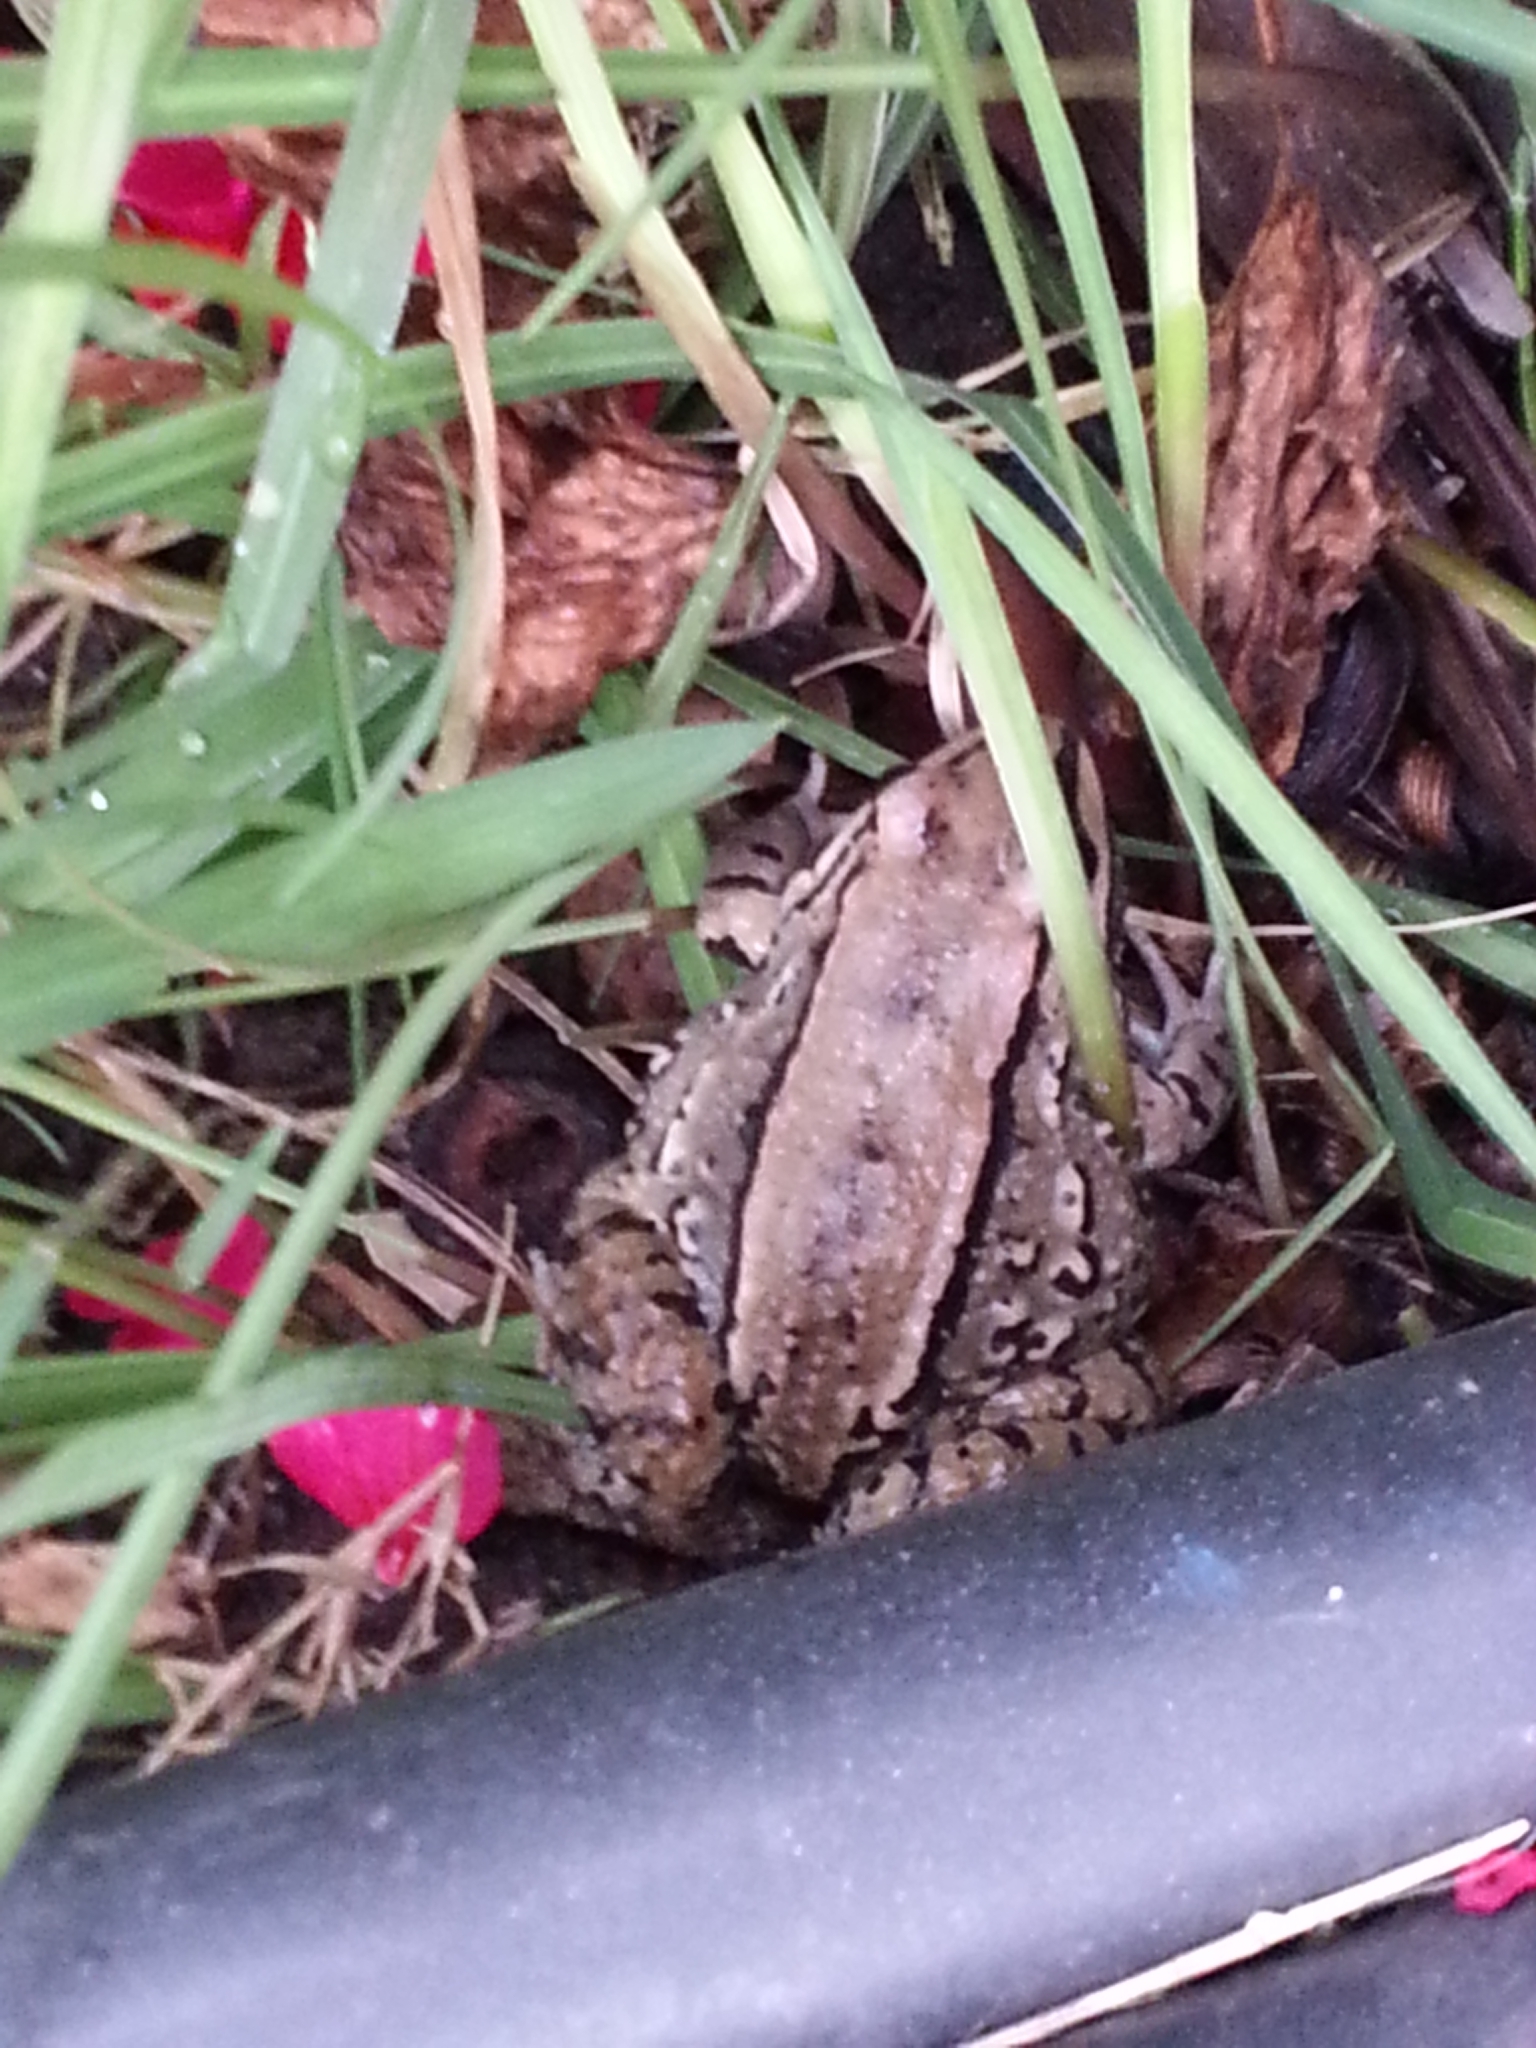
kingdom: Animalia
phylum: Chordata
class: Amphibia
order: Anura
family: Leptodactylidae
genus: Leptodactylus
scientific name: Leptodactylus mystacinus
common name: Moustached frog
